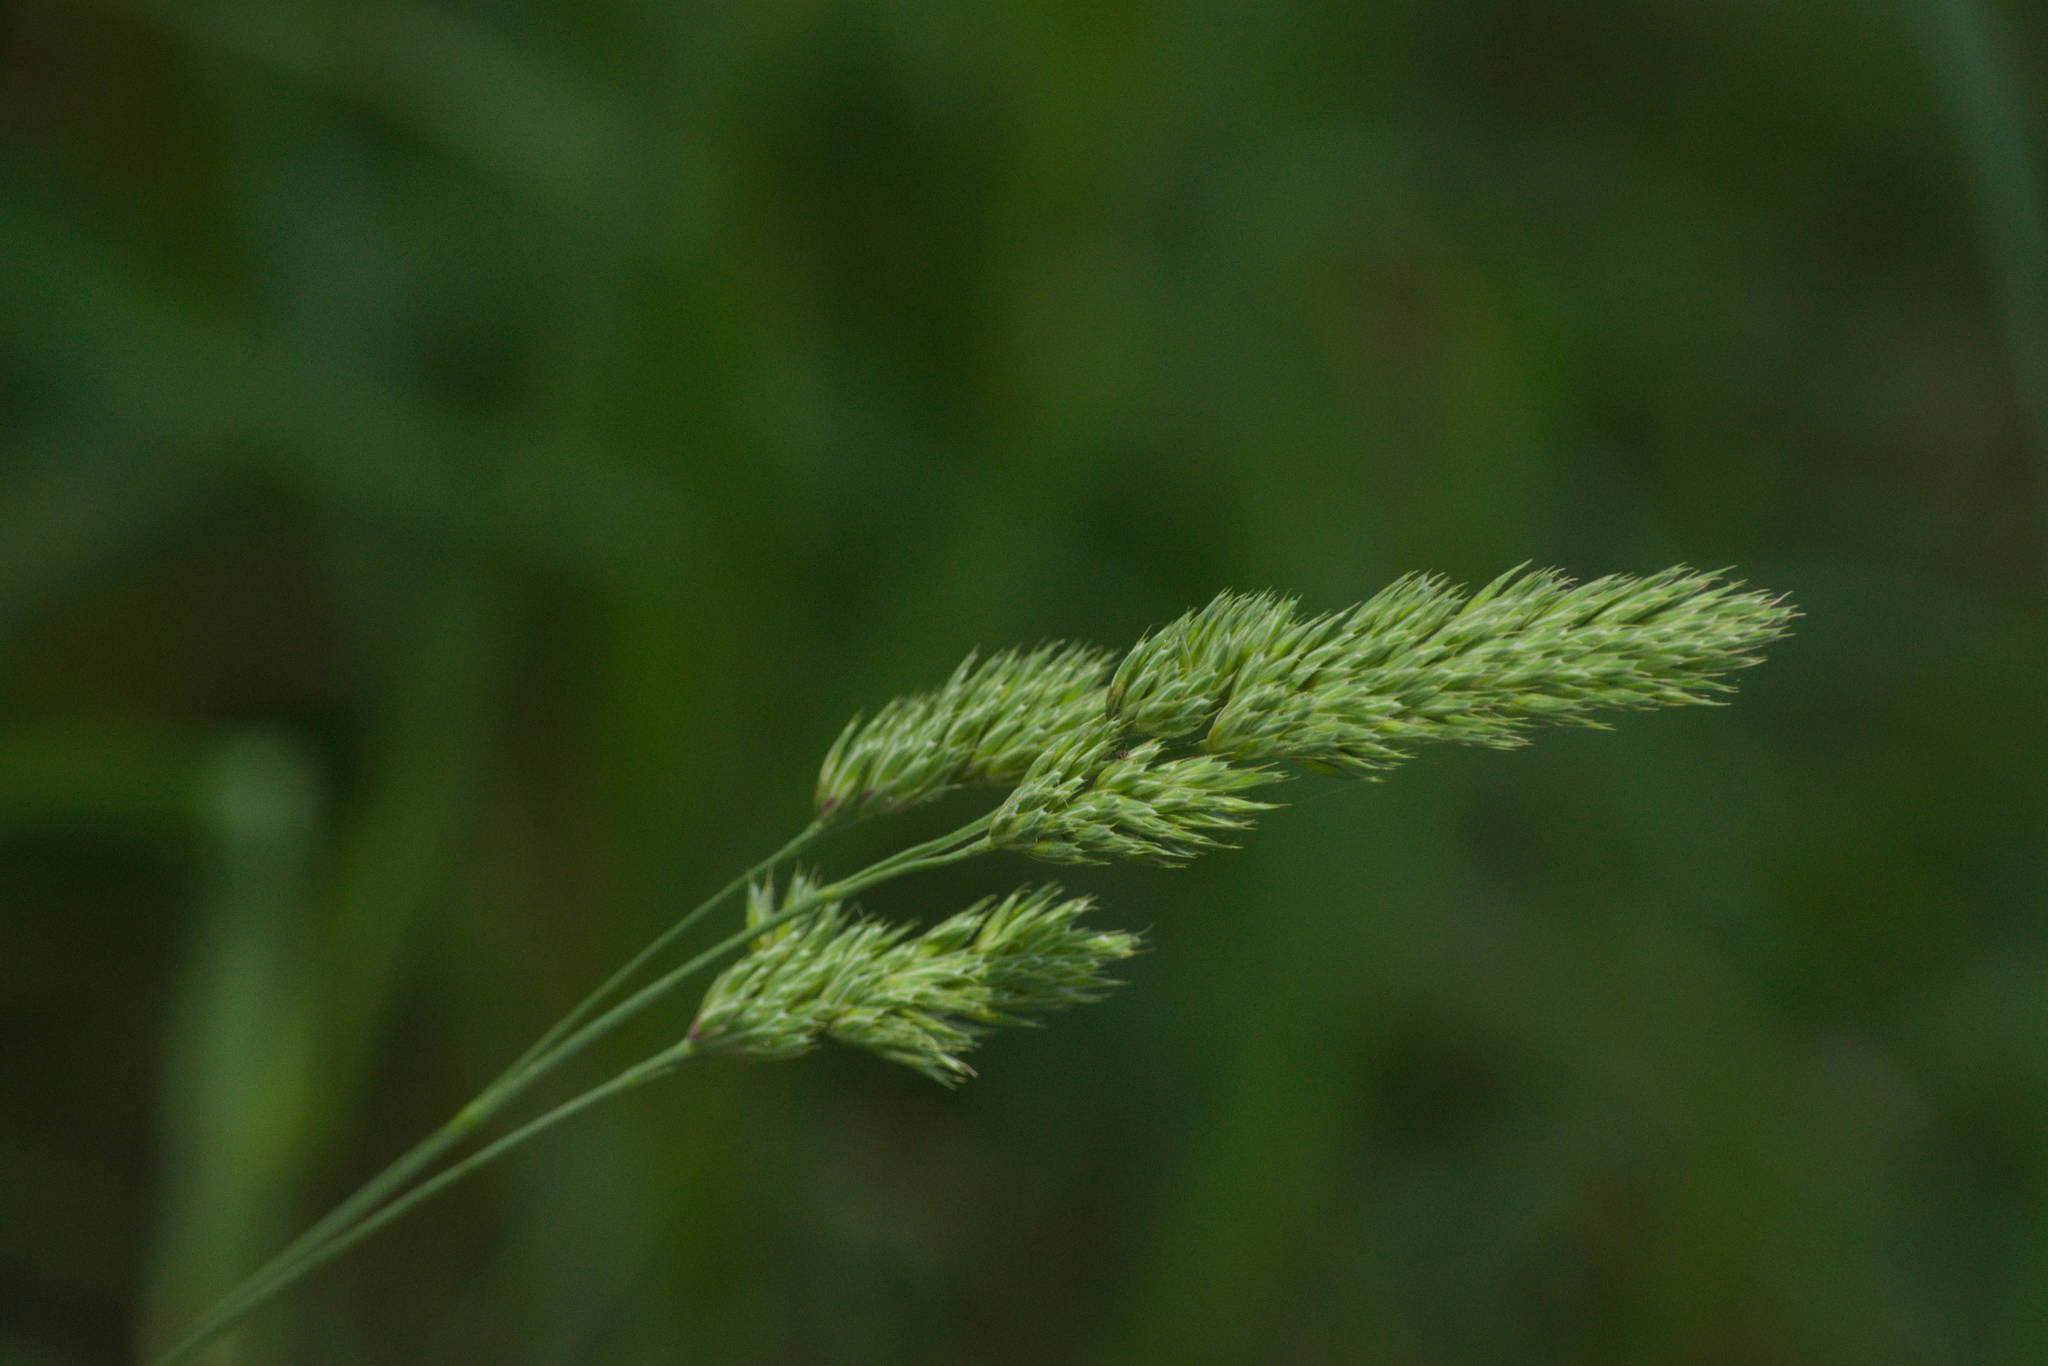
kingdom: Plantae
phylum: Tracheophyta
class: Liliopsida
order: Poales
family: Poaceae
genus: Dactylis
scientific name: Dactylis glomerata
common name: Orchardgrass
